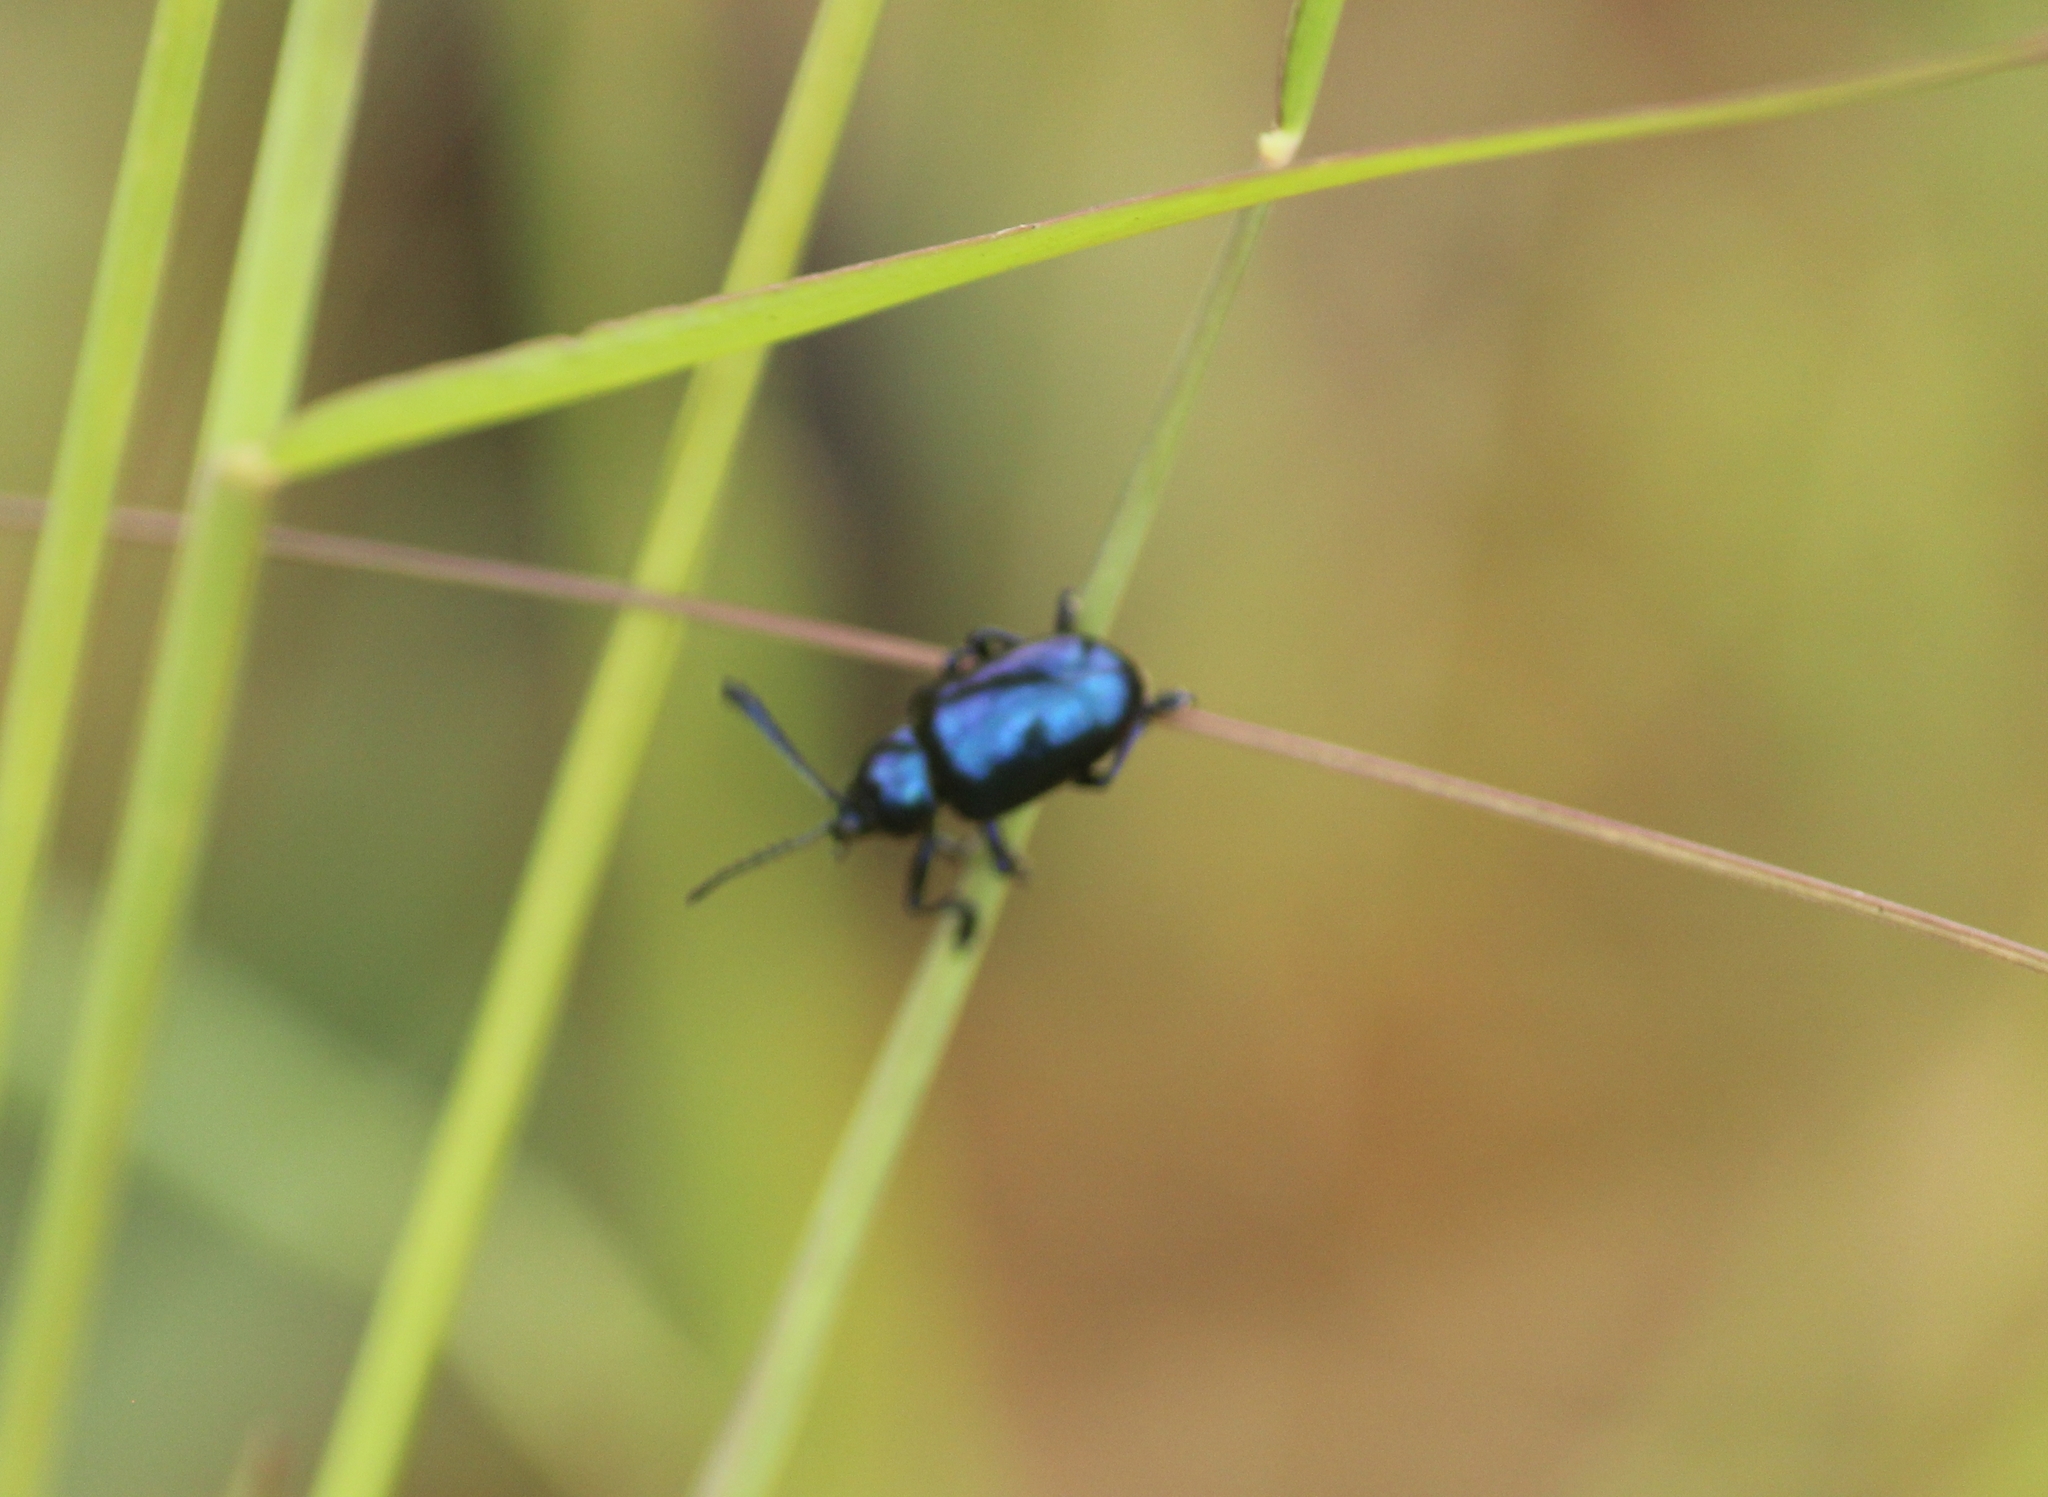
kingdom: Animalia
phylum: Arthropoda
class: Insecta
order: Coleoptera
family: Chrysomelidae
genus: Platycorynus
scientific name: Platycorynus
